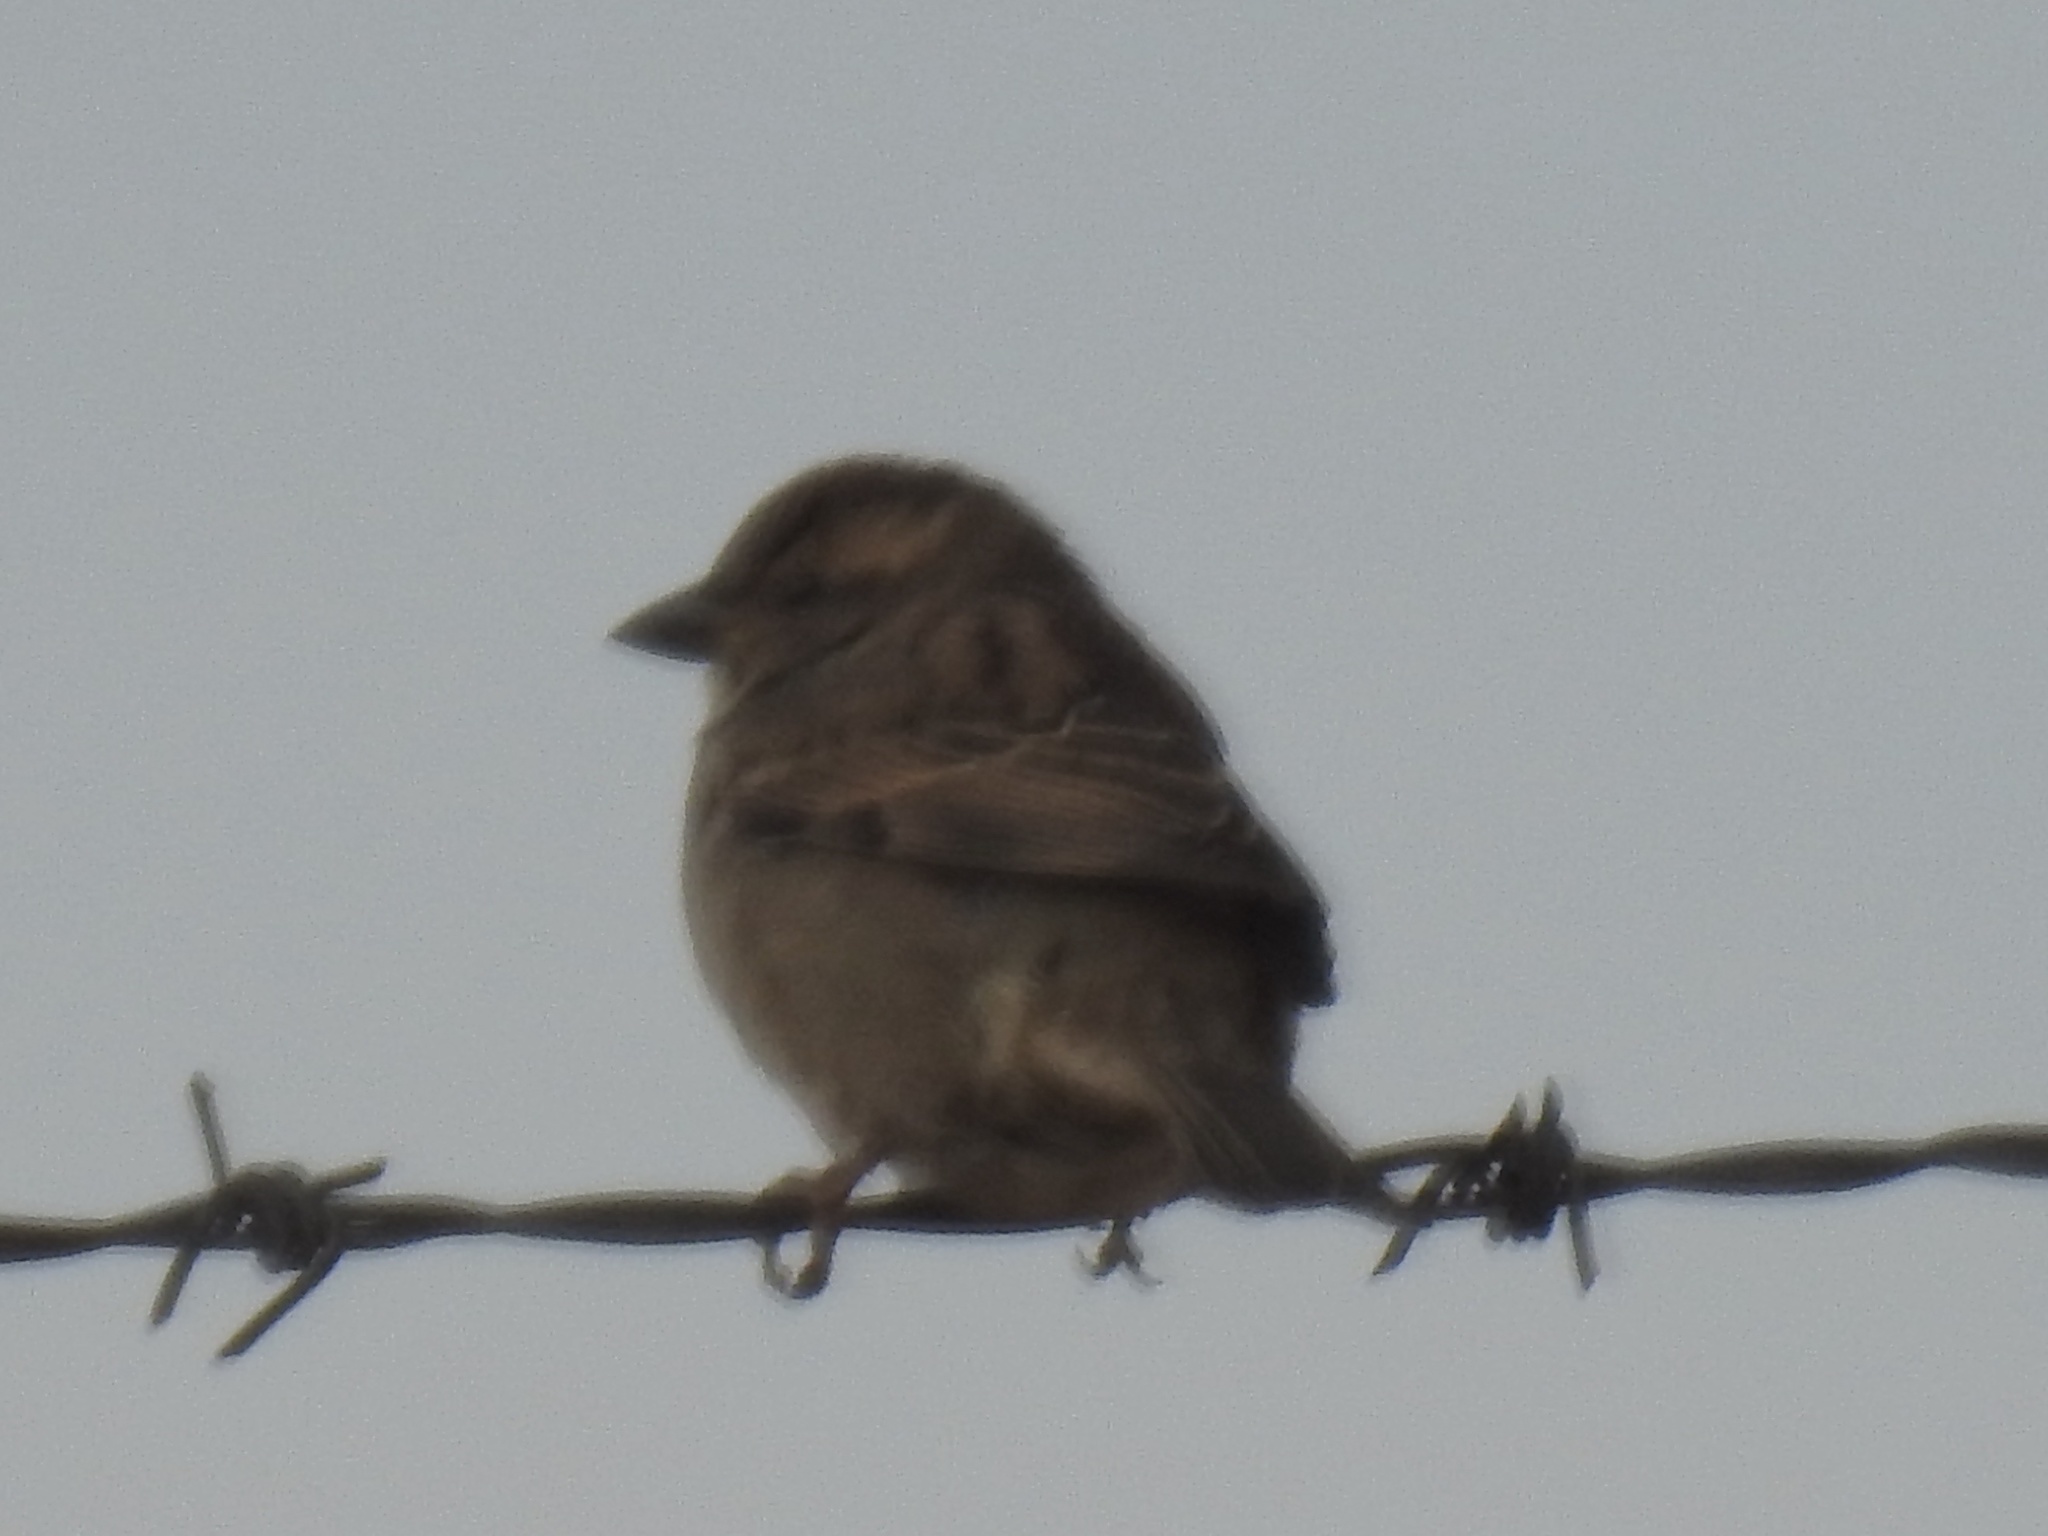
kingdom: Animalia
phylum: Chordata
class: Aves
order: Passeriformes
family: Passeridae
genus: Passer
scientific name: Passer domesticus
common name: House sparrow
